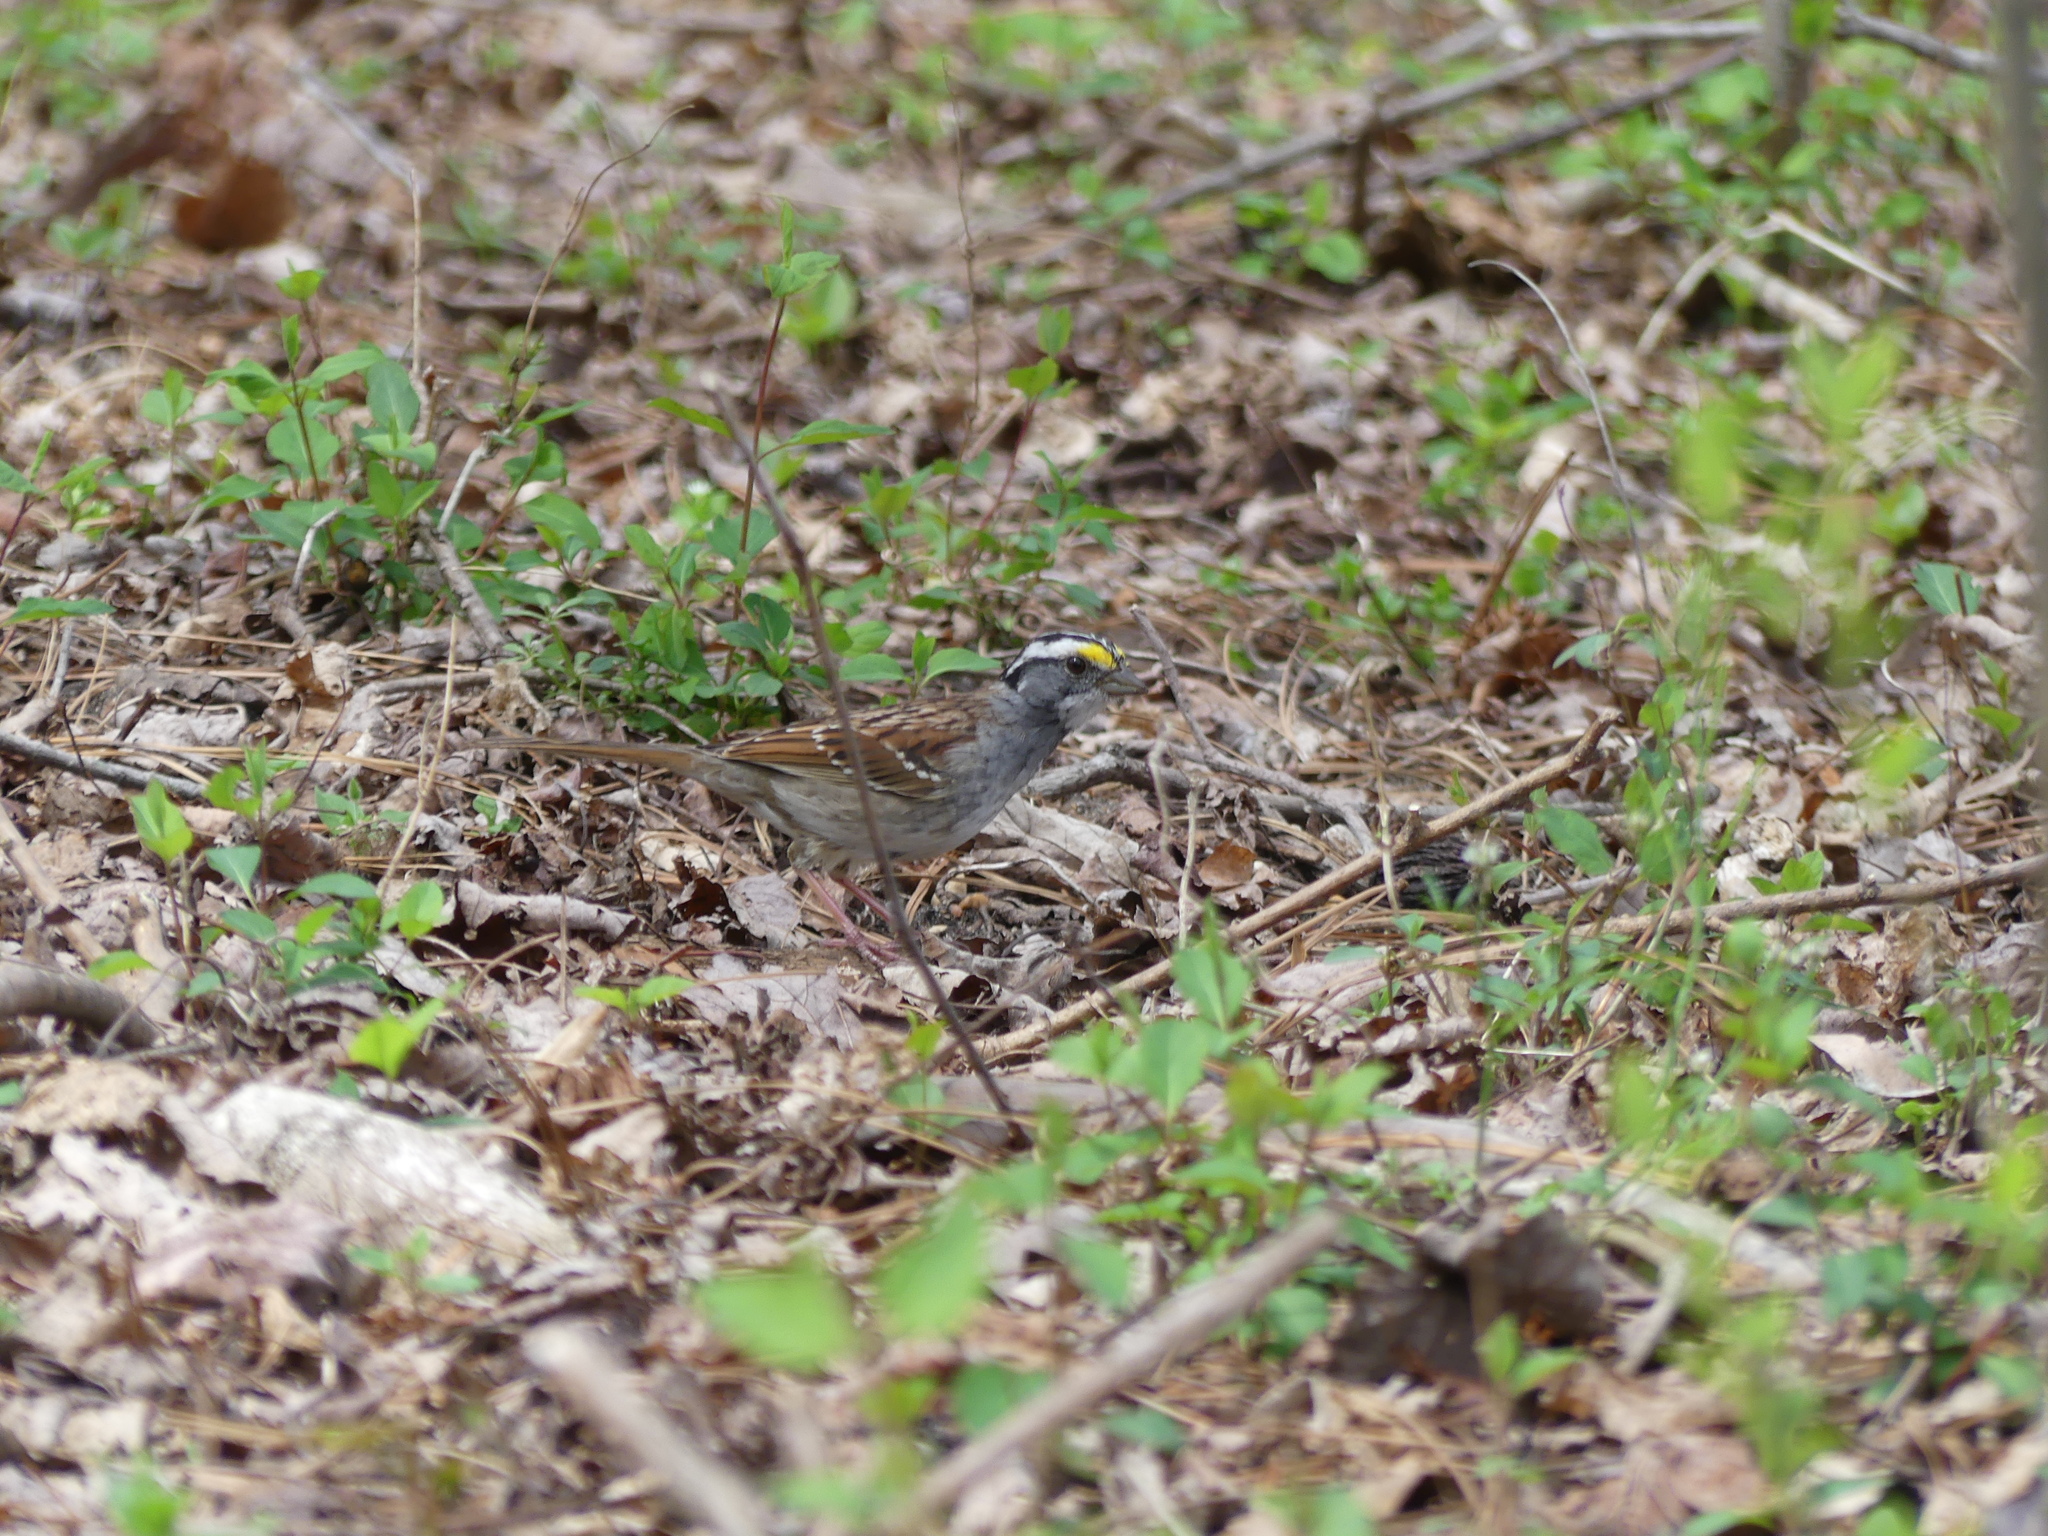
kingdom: Animalia
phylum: Chordata
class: Aves
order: Passeriformes
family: Passerellidae
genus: Zonotrichia
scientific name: Zonotrichia albicollis
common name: White-throated sparrow
